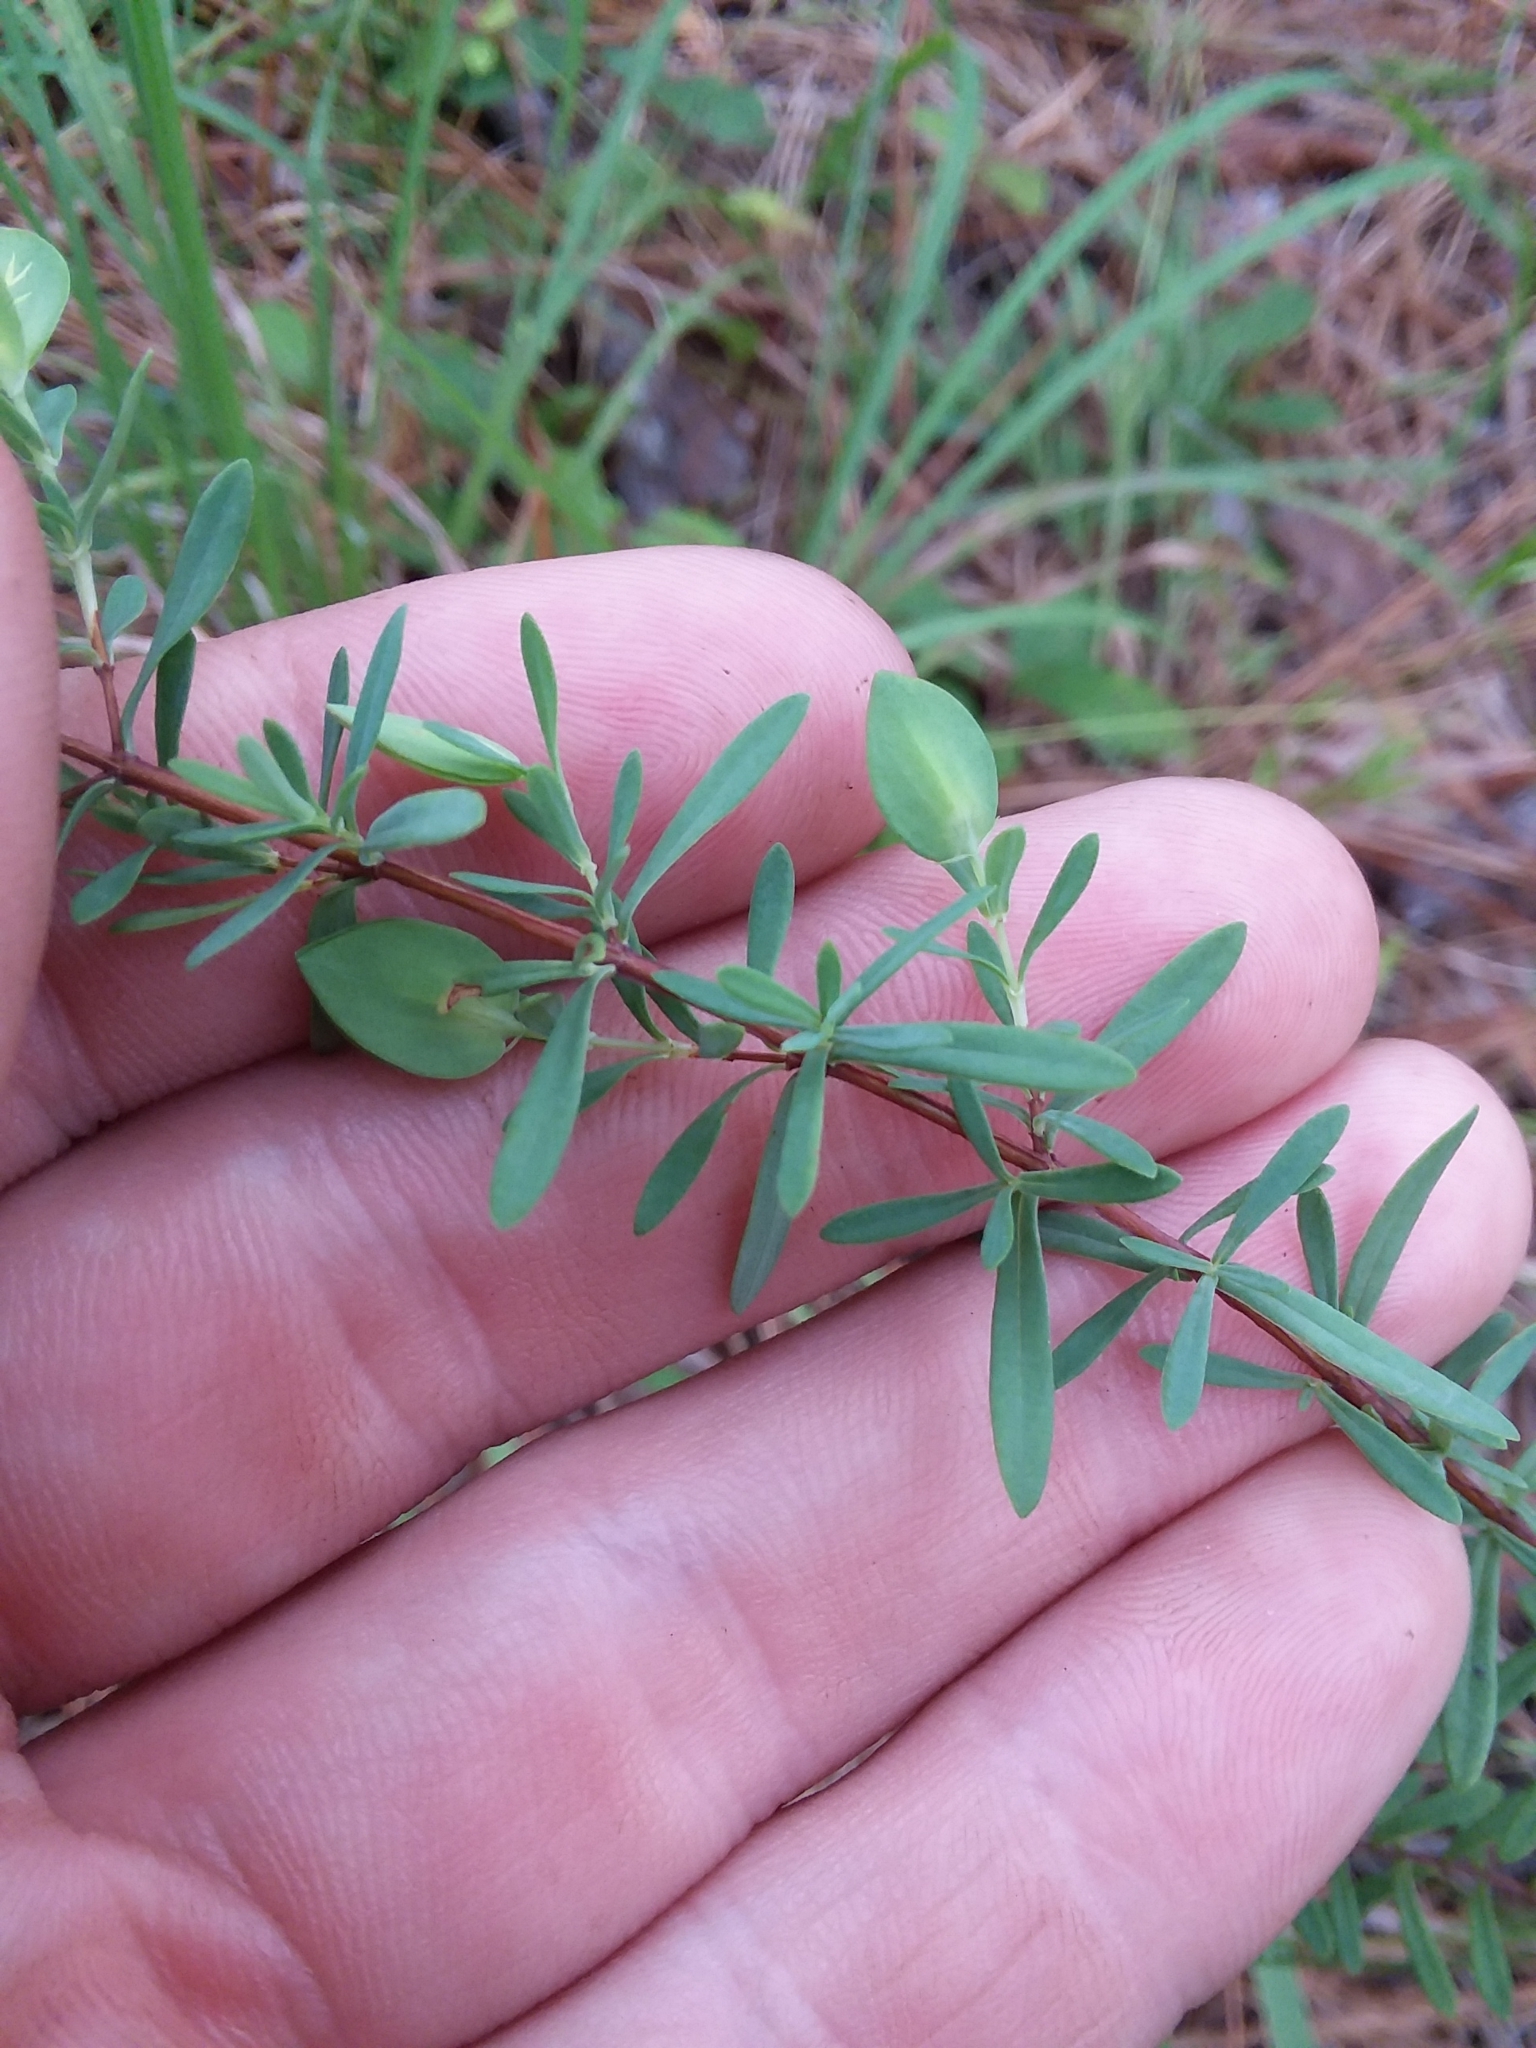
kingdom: Plantae
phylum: Tracheophyta
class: Magnoliopsida
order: Malpighiales
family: Hypericaceae
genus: Hypericum
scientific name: Hypericum hypericoides
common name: St. andrew's cross
